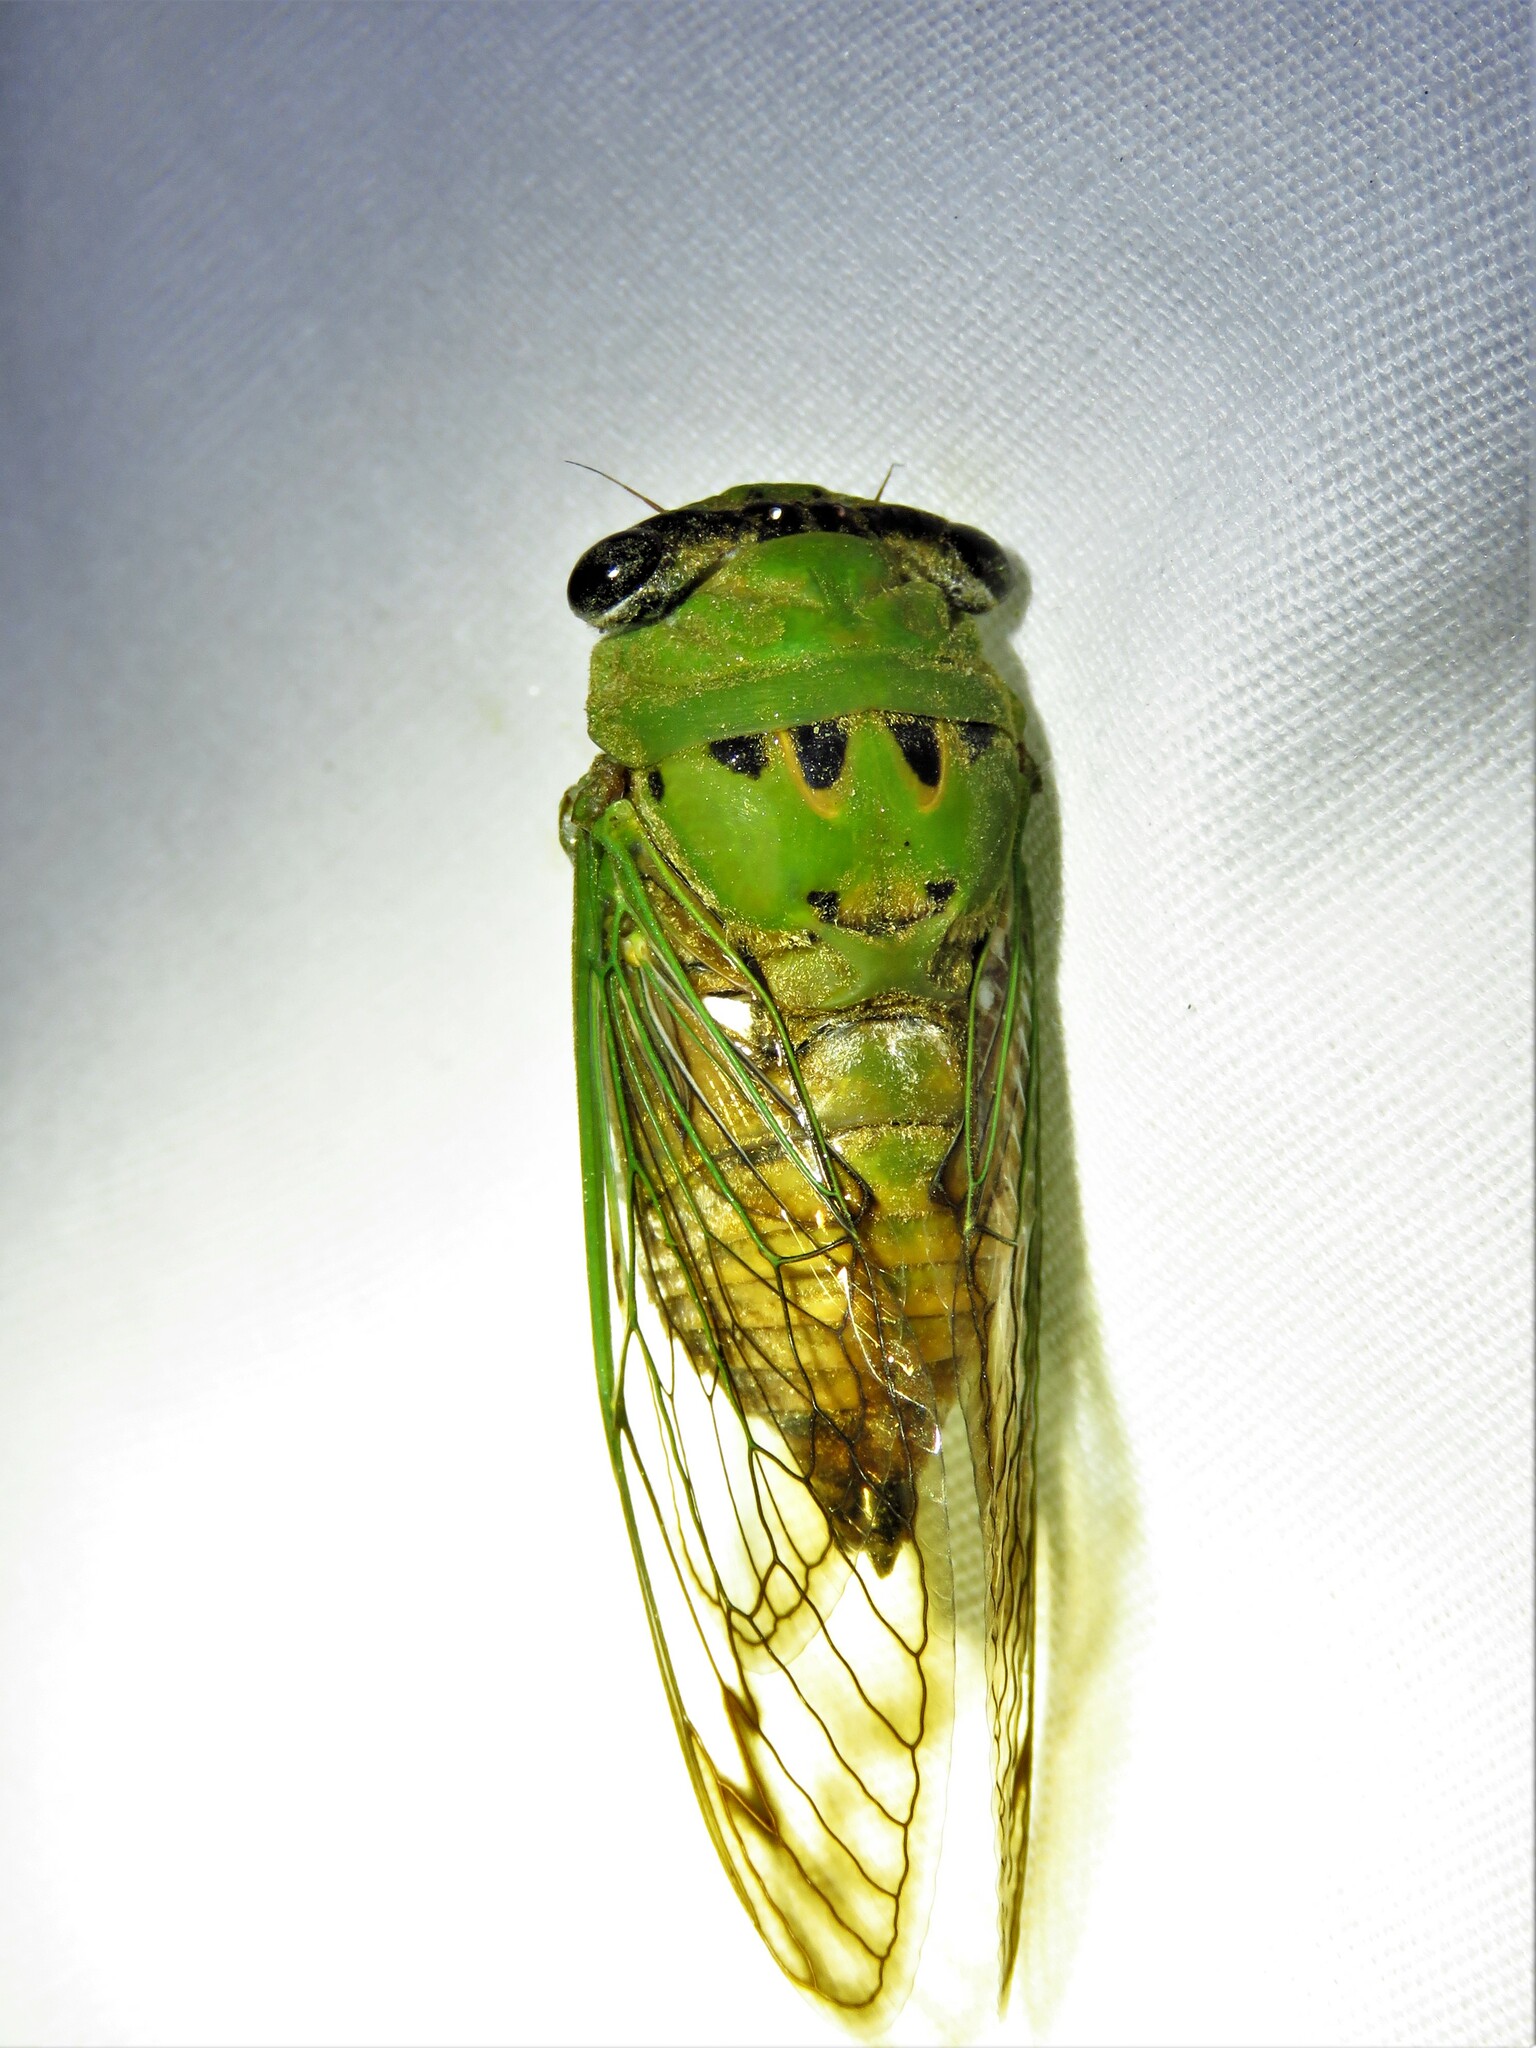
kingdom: Animalia
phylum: Arthropoda
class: Insecta
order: Hemiptera
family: Cicadidae
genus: Neotibicen
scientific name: Neotibicen superbus
